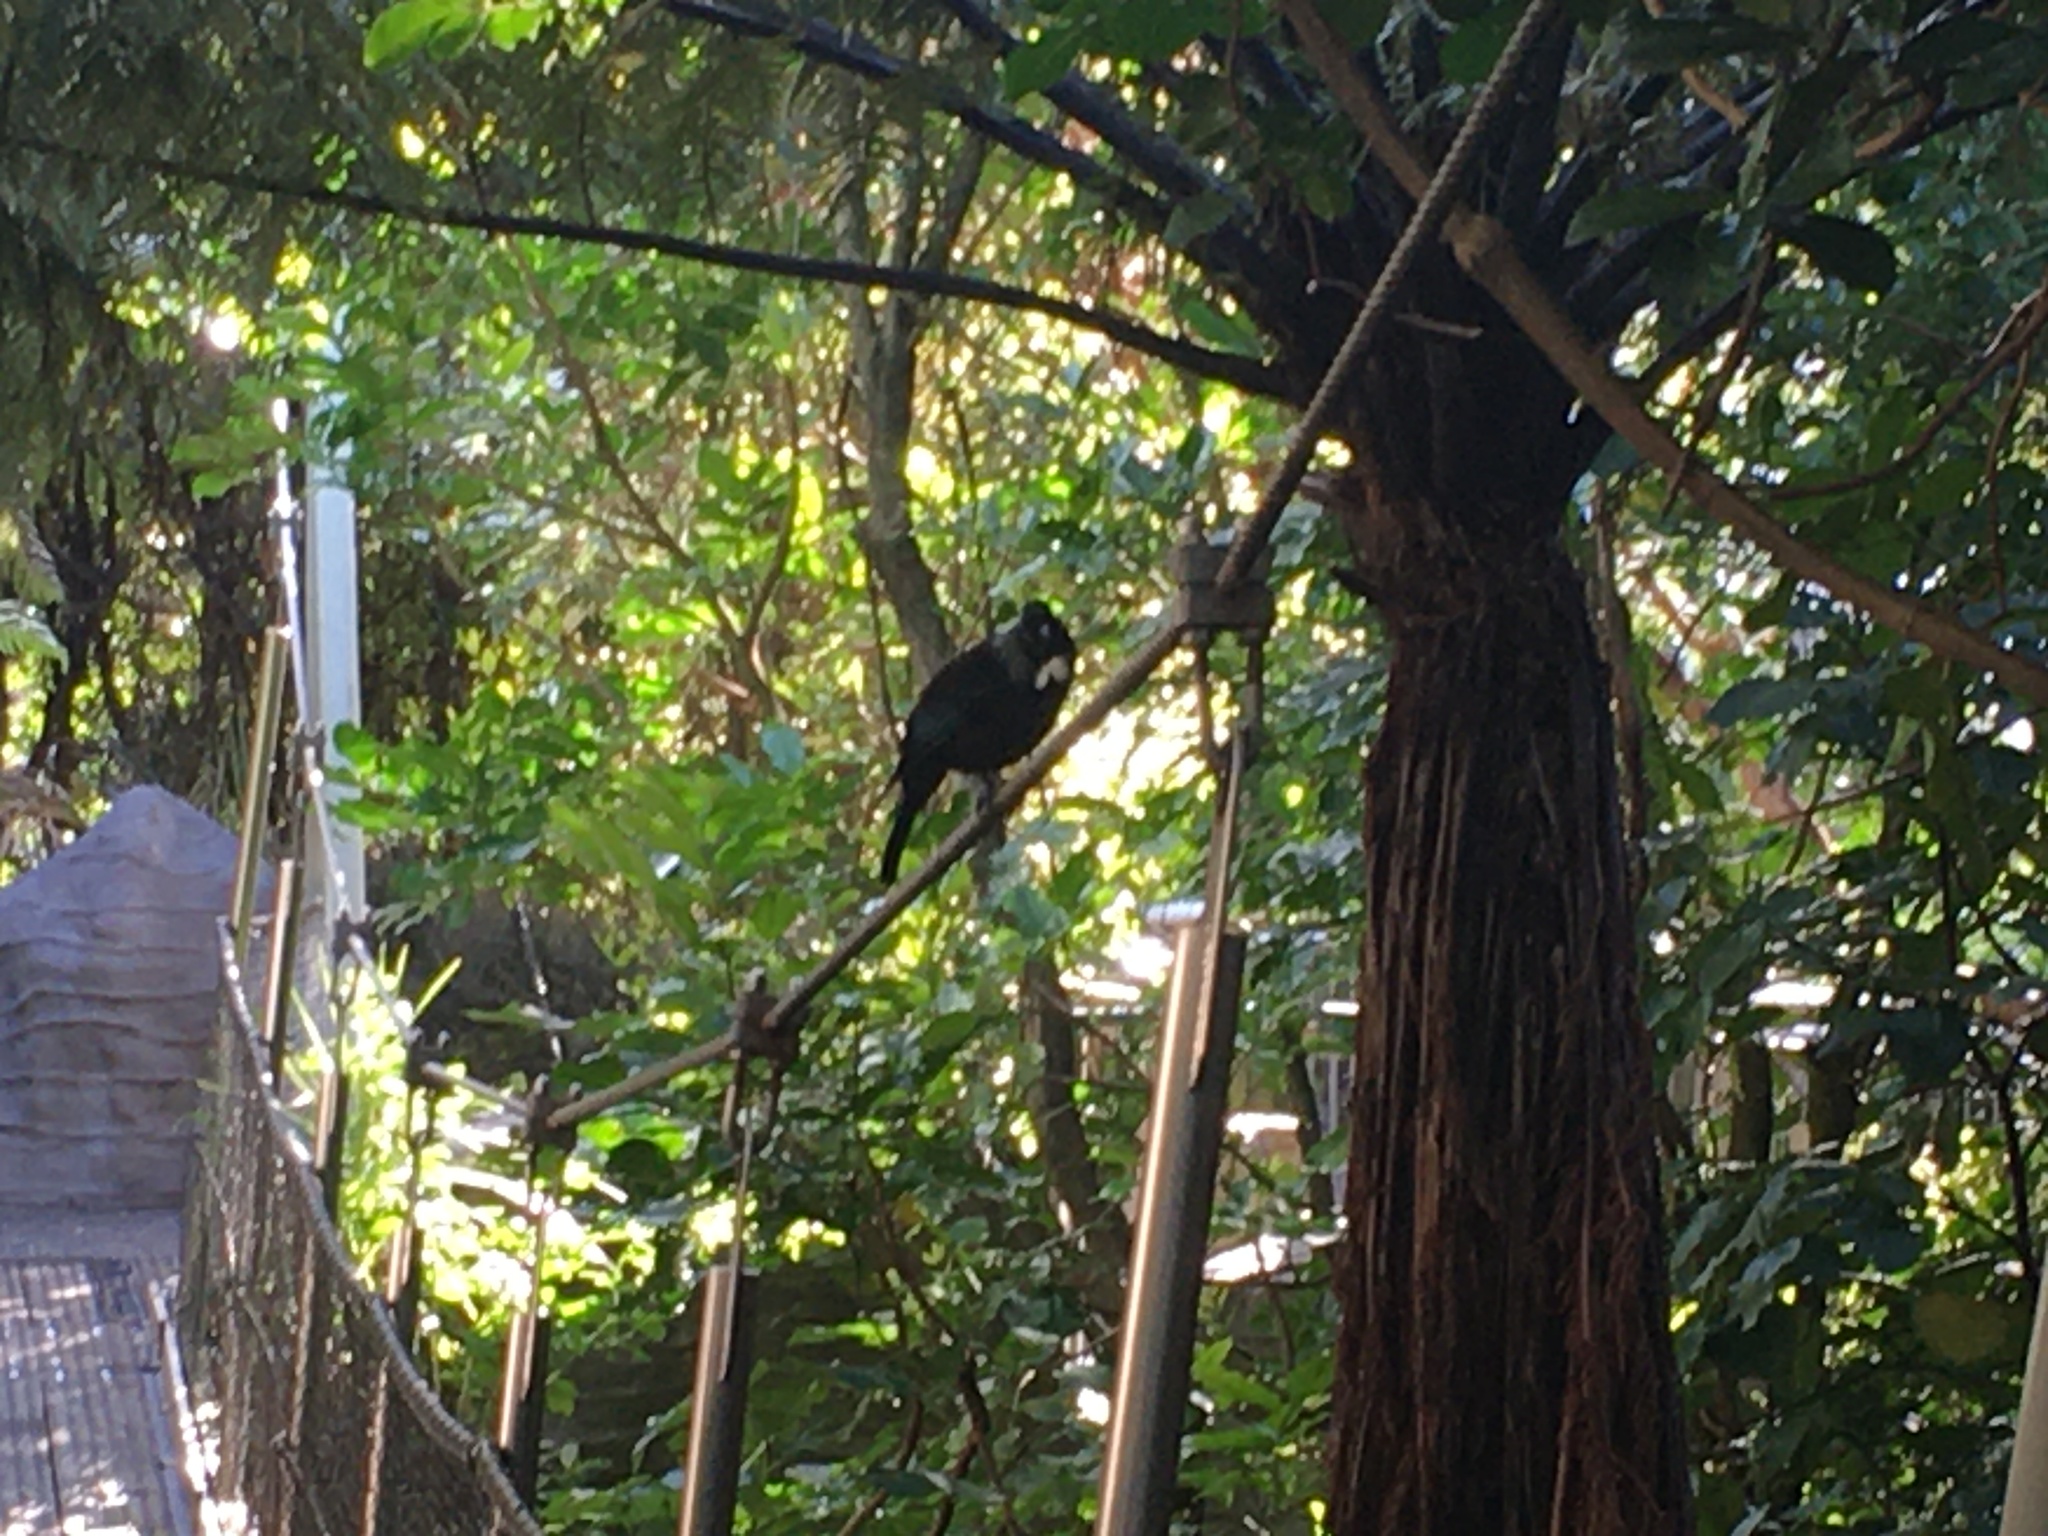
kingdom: Animalia
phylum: Chordata
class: Aves
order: Passeriformes
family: Meliphagidae
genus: Prosthemadera
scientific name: Prosthemadera novaeseelandiae
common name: Tui
